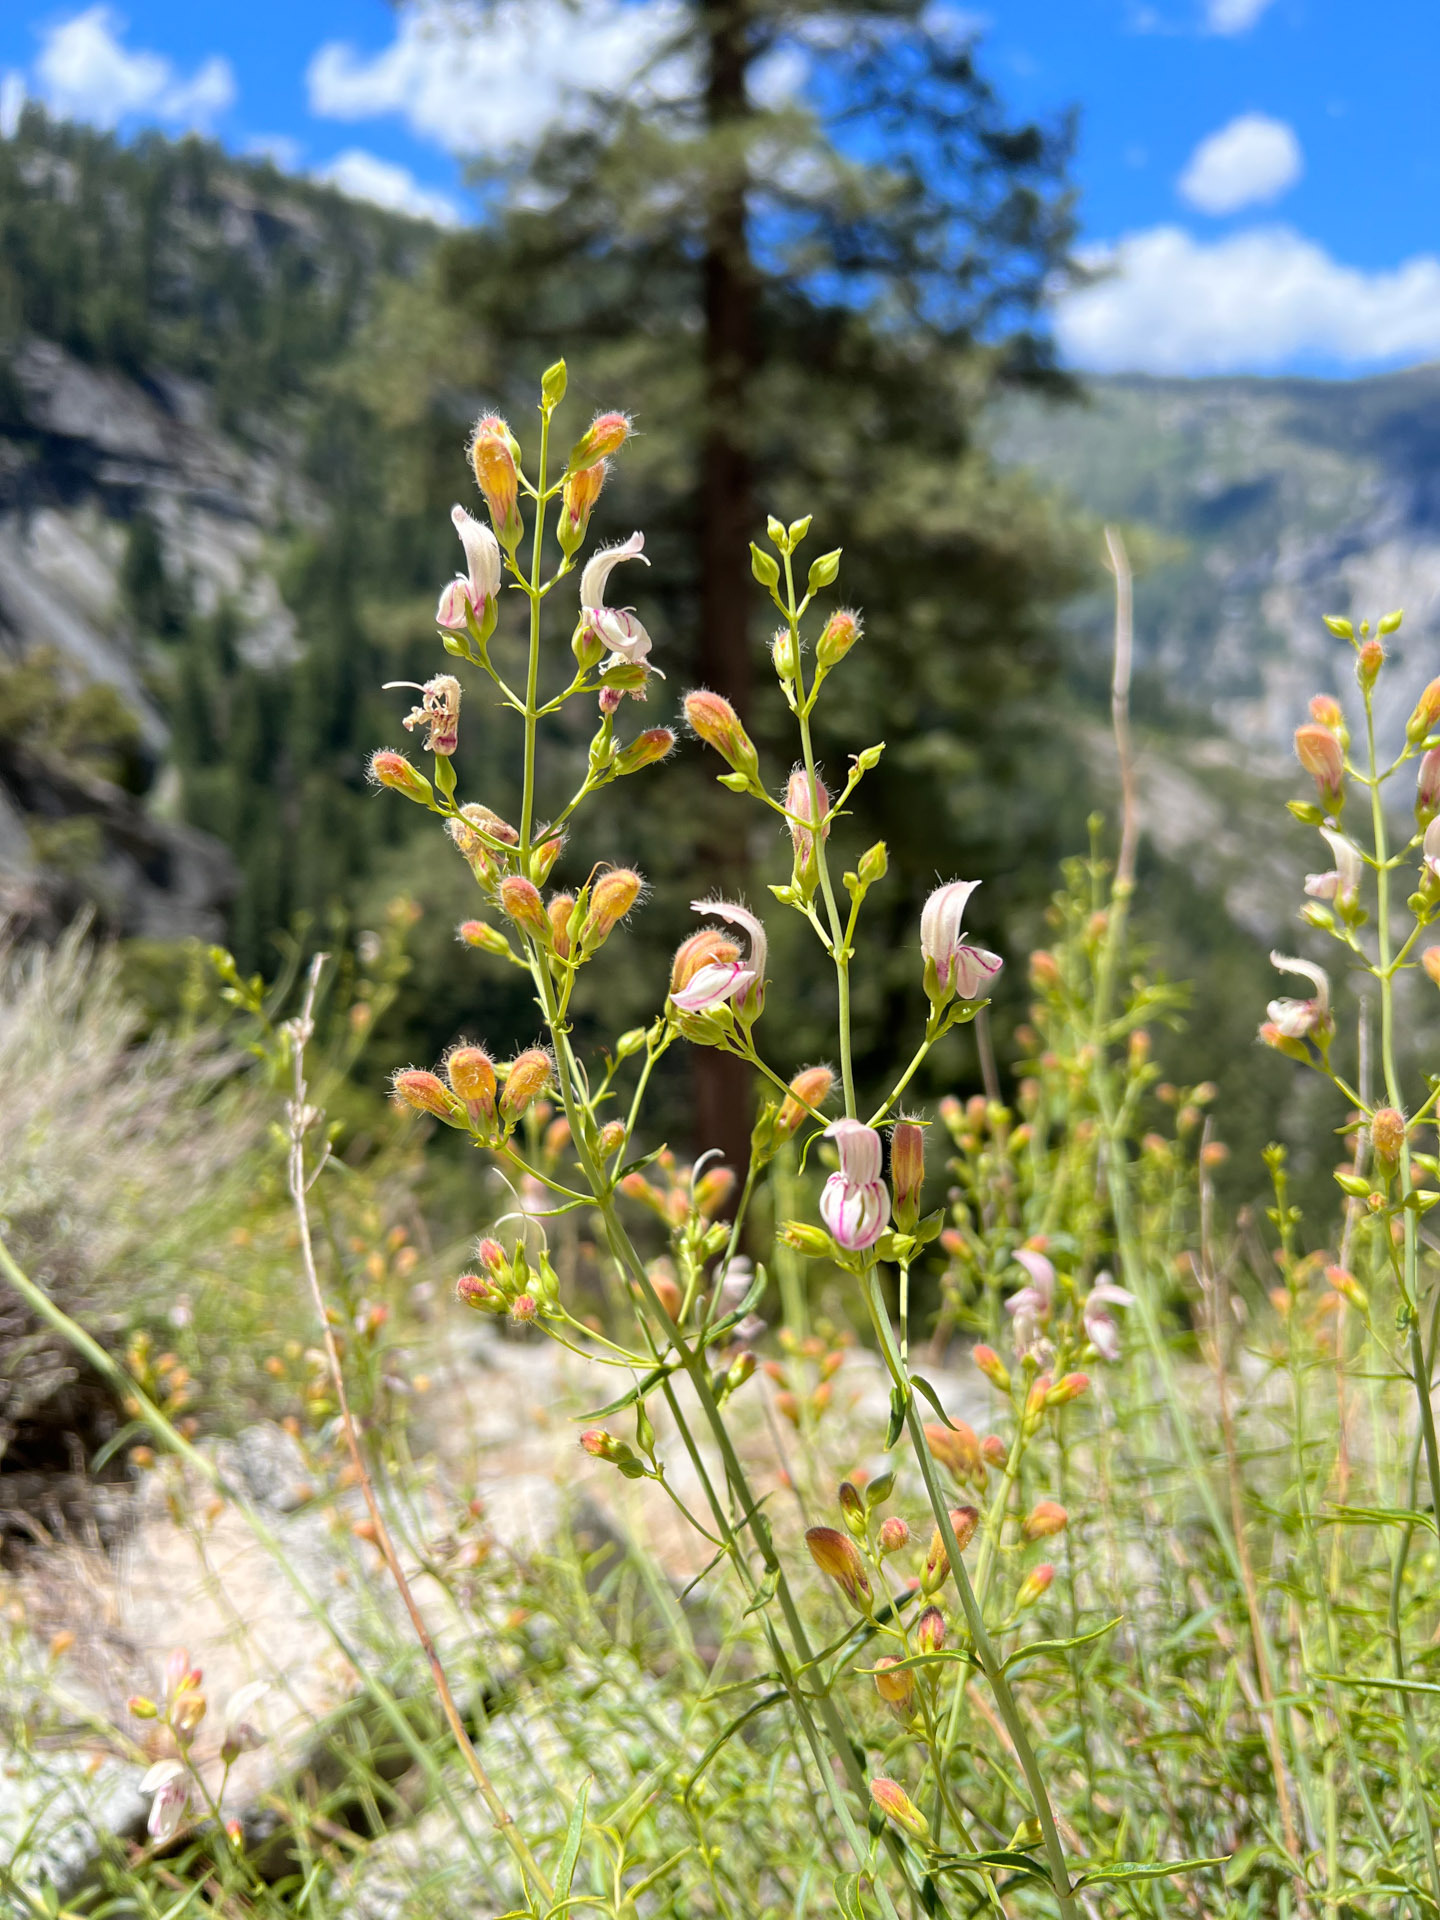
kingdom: Plantae
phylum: Tracheophyta
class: Magnoliopsida
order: Lamiales
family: Plantaginaceae
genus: Keckiella
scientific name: Keckiella breviflora
